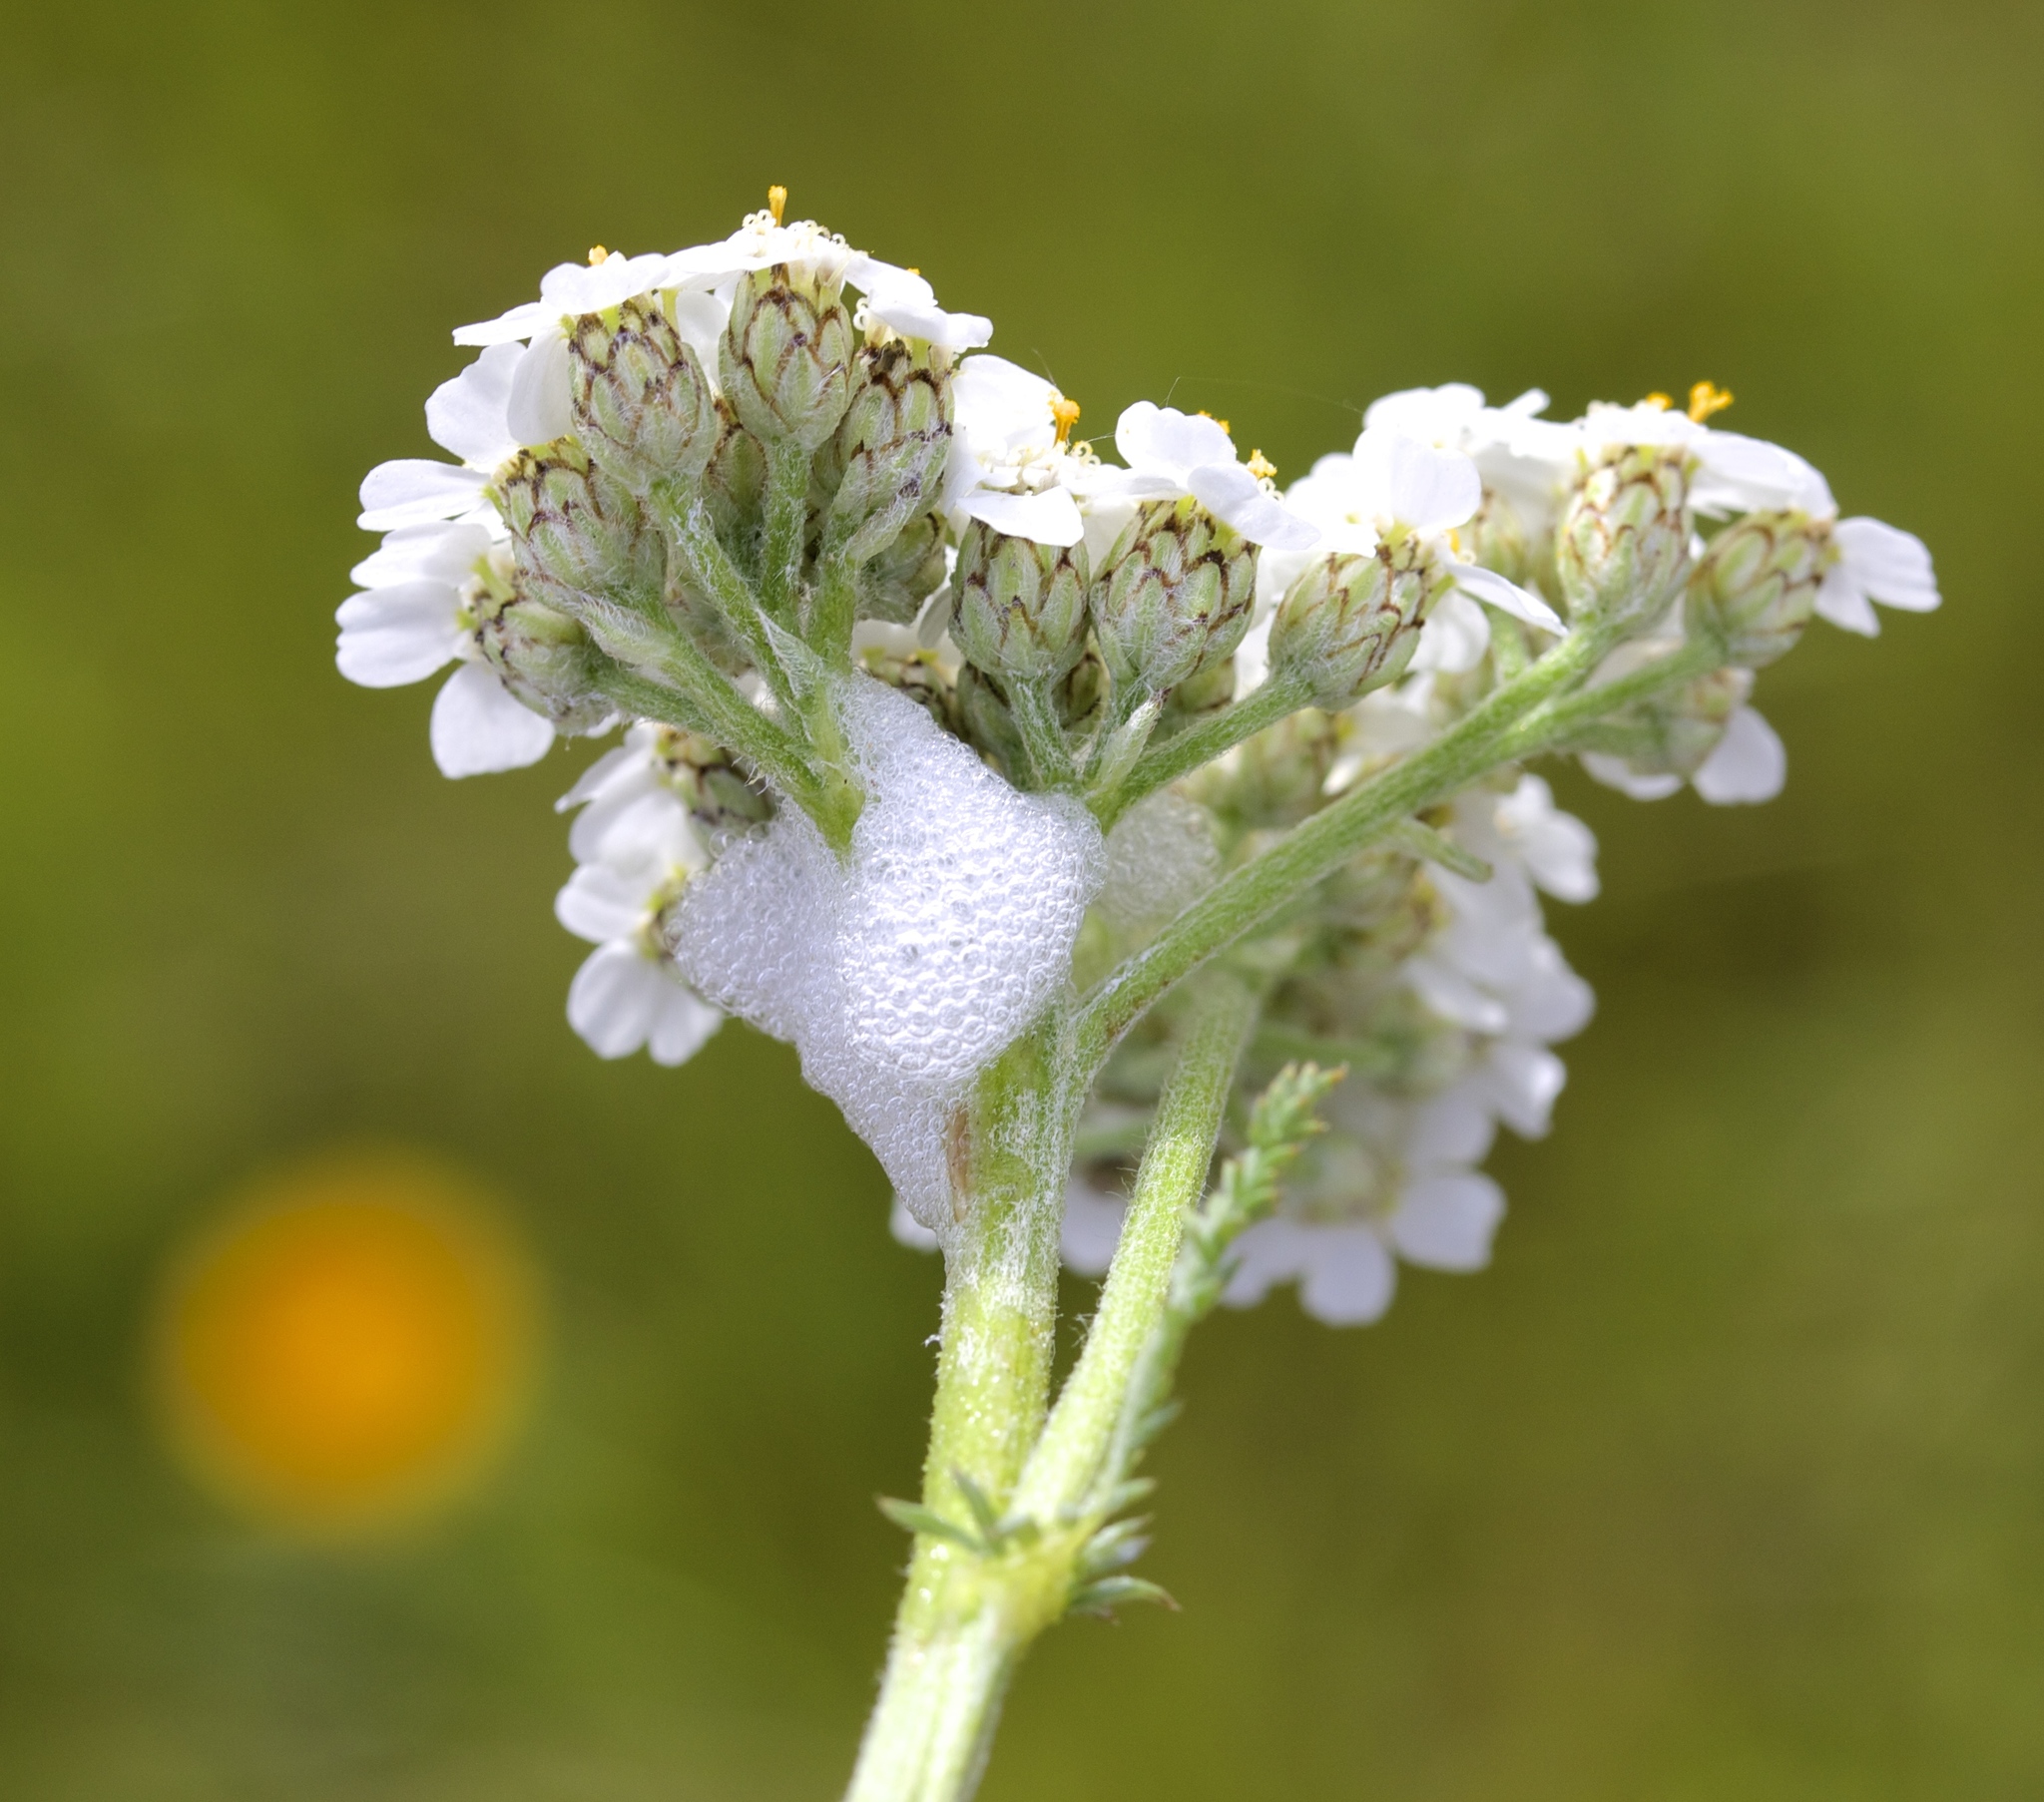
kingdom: Plantae
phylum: Tracheophyta
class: Magnoliopsida
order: Asterales
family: Asteraceae
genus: Achillea
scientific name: Achillea millefolium
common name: Yarrow
